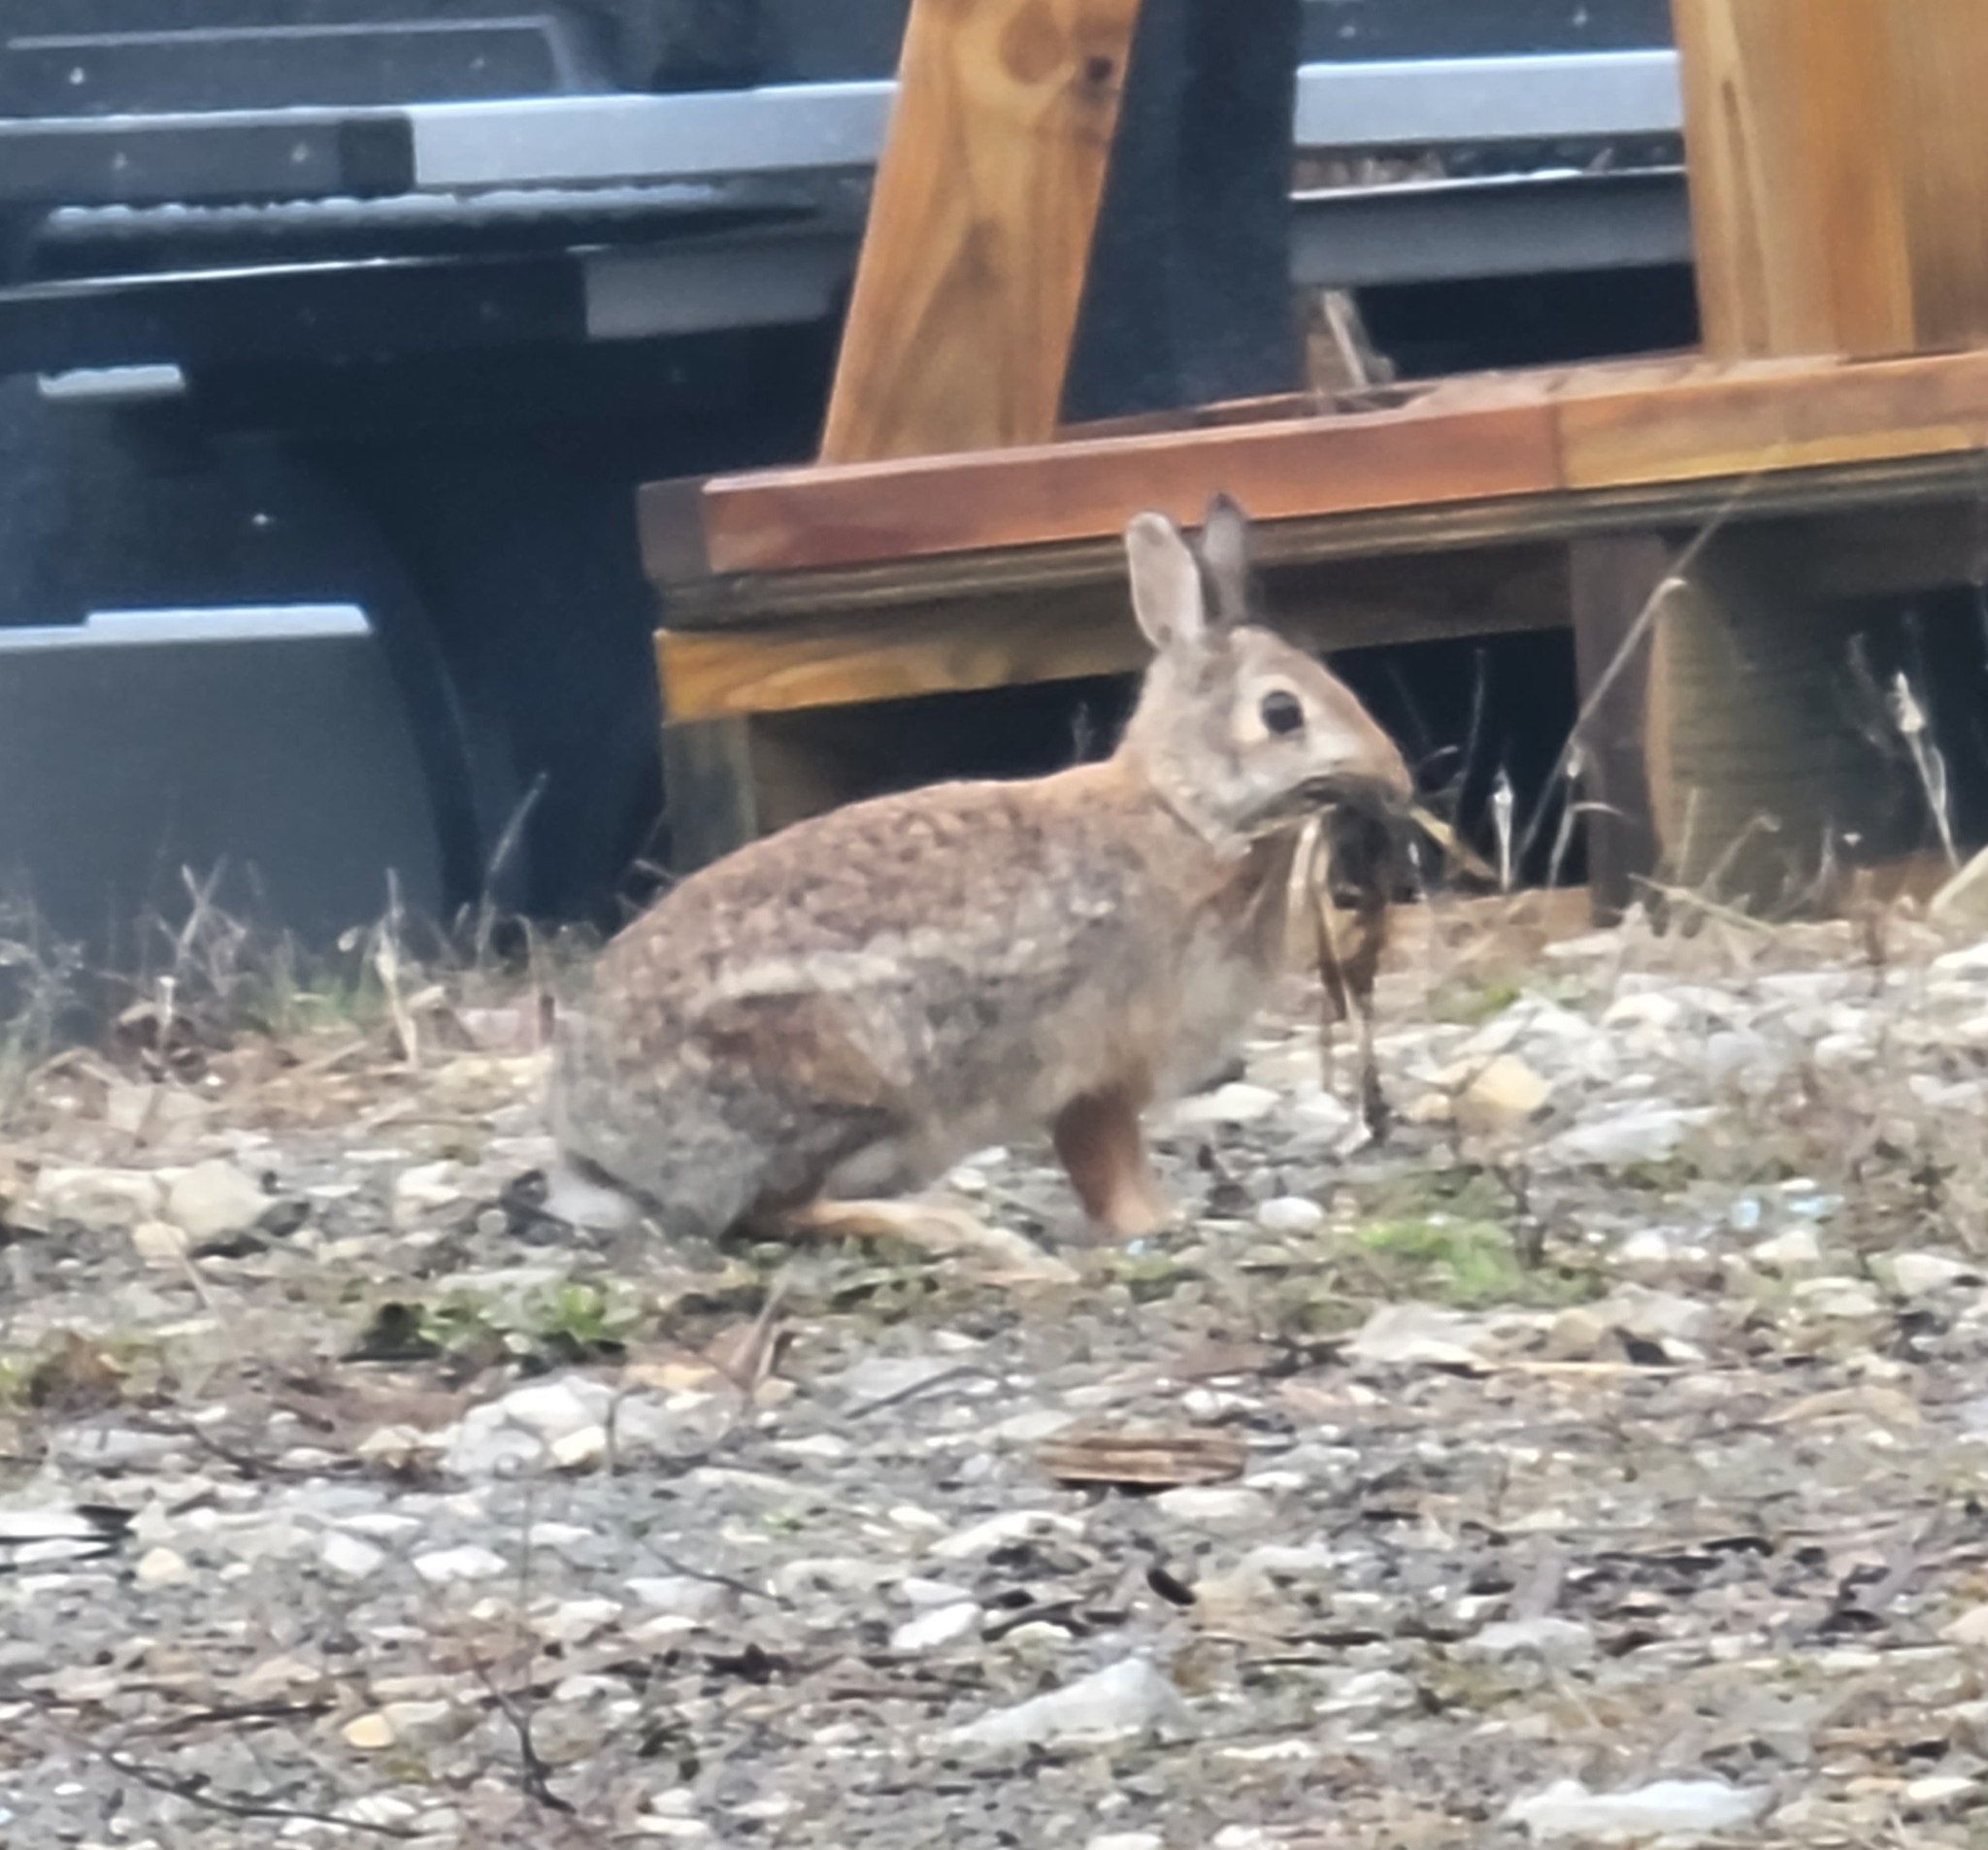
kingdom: Animalia
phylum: Chordata
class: Mammalia
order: Lagomorpha
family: Leporidae
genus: Sylvilagus
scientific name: Sylvilagus floridanus
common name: Eastern cottontail
